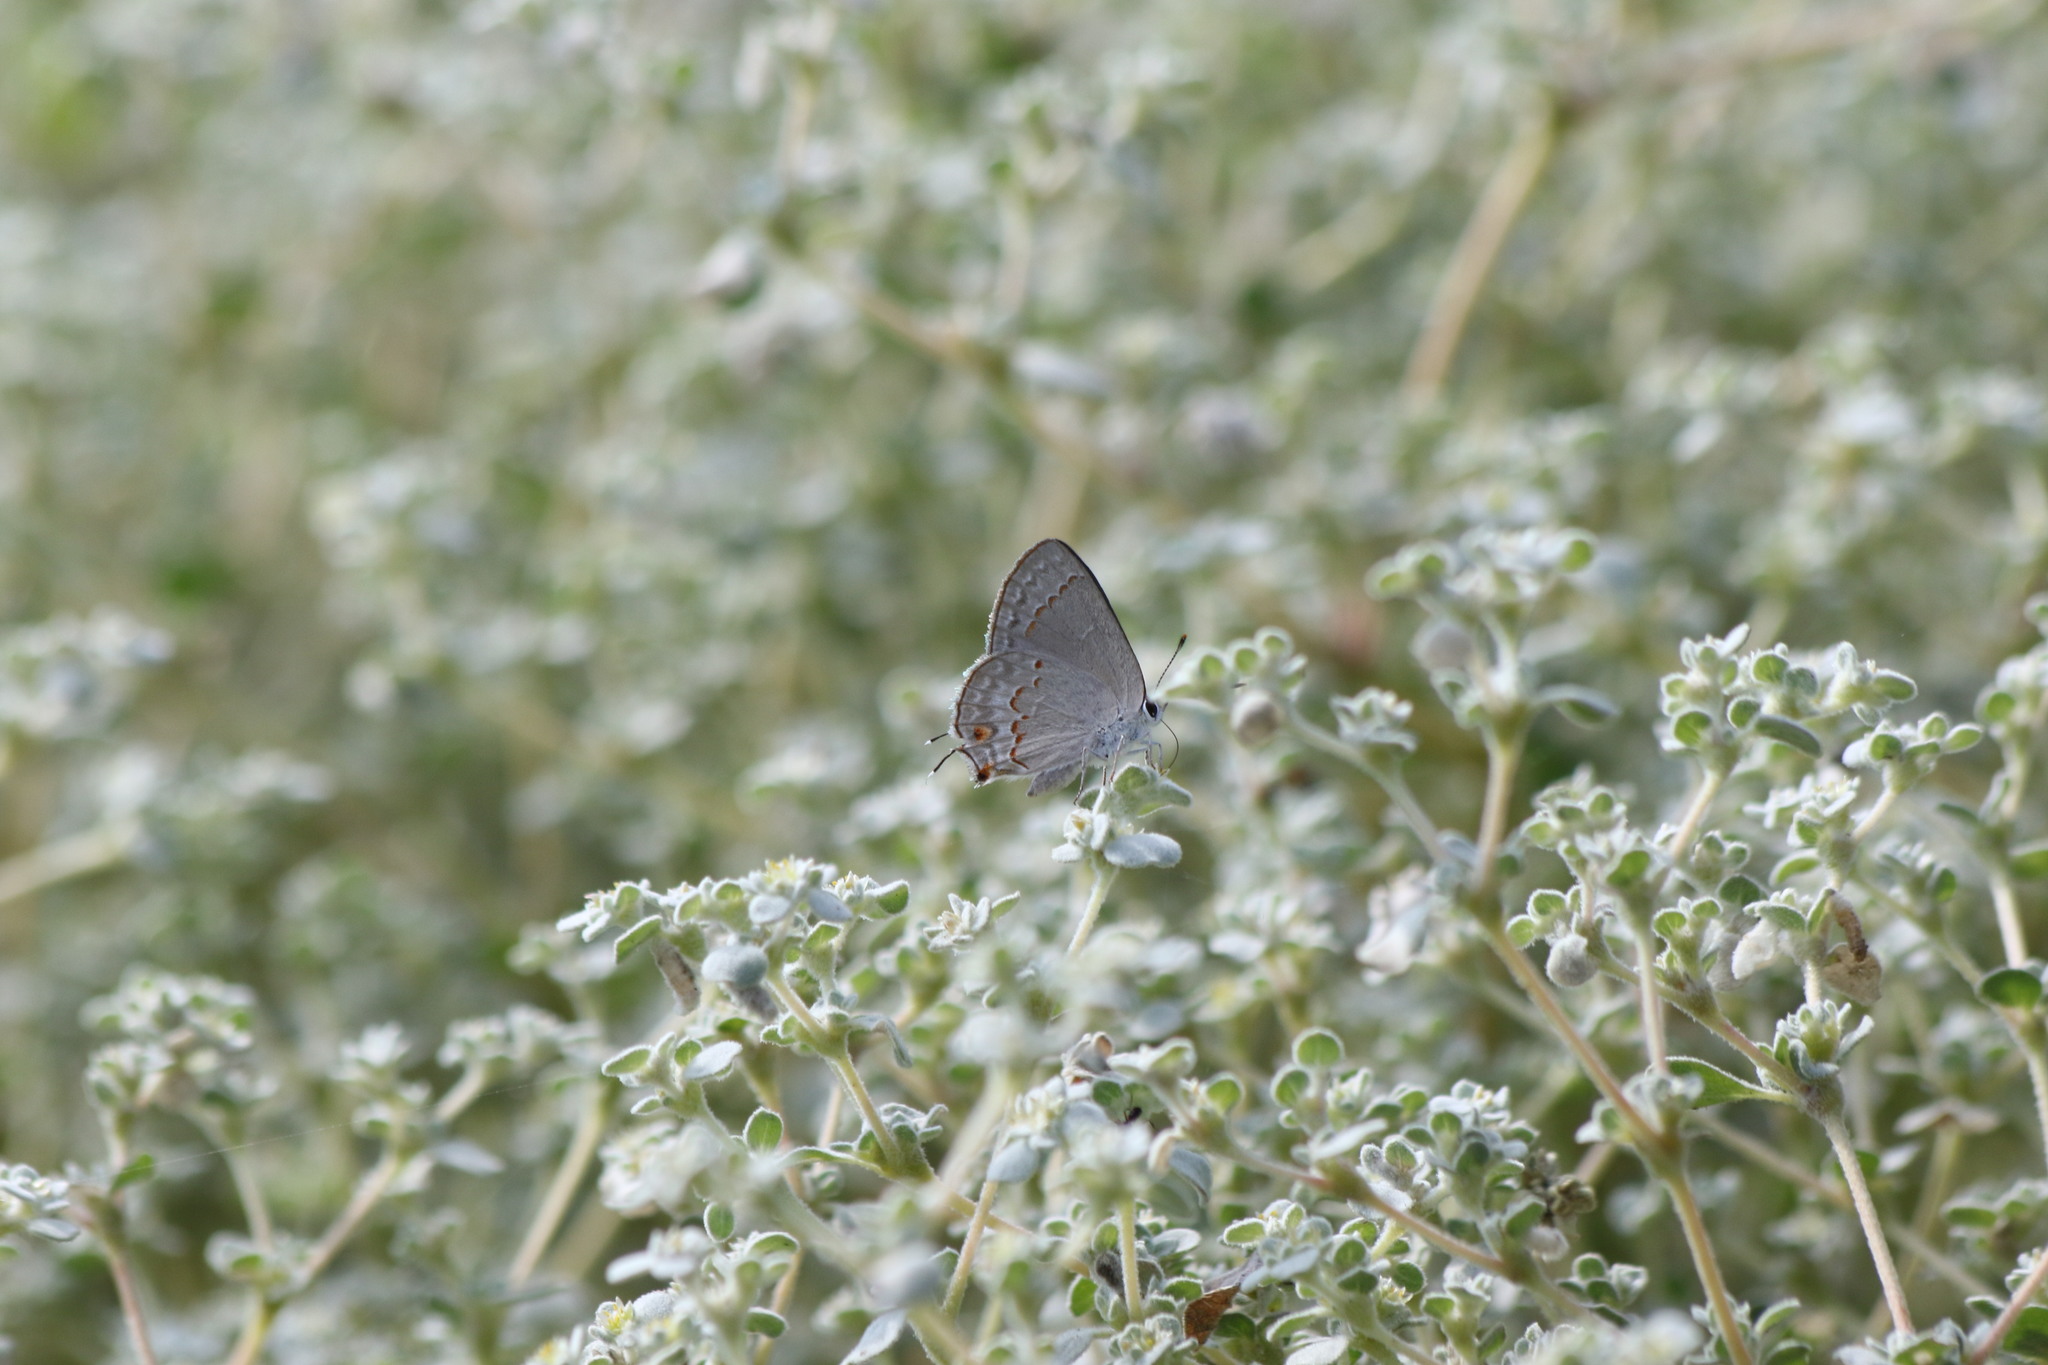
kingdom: Animalia
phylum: Arthropoda
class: Insecta
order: Lepidoptera
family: Lycaenidae
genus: Thecla
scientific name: Thecla rufofusca
